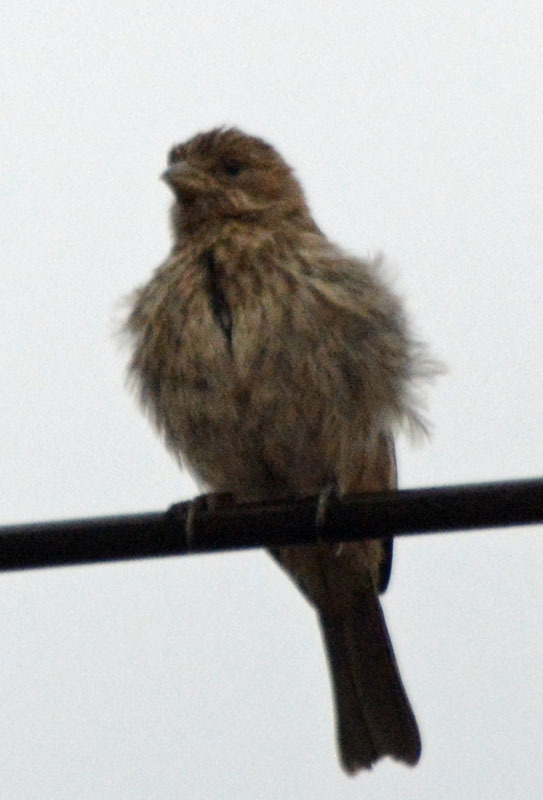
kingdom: Animalia
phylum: Chordata
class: Aves
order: Passeriformes
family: Fringillidae
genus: Haemorhous
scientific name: Haemorhous mexicanus
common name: House finch
